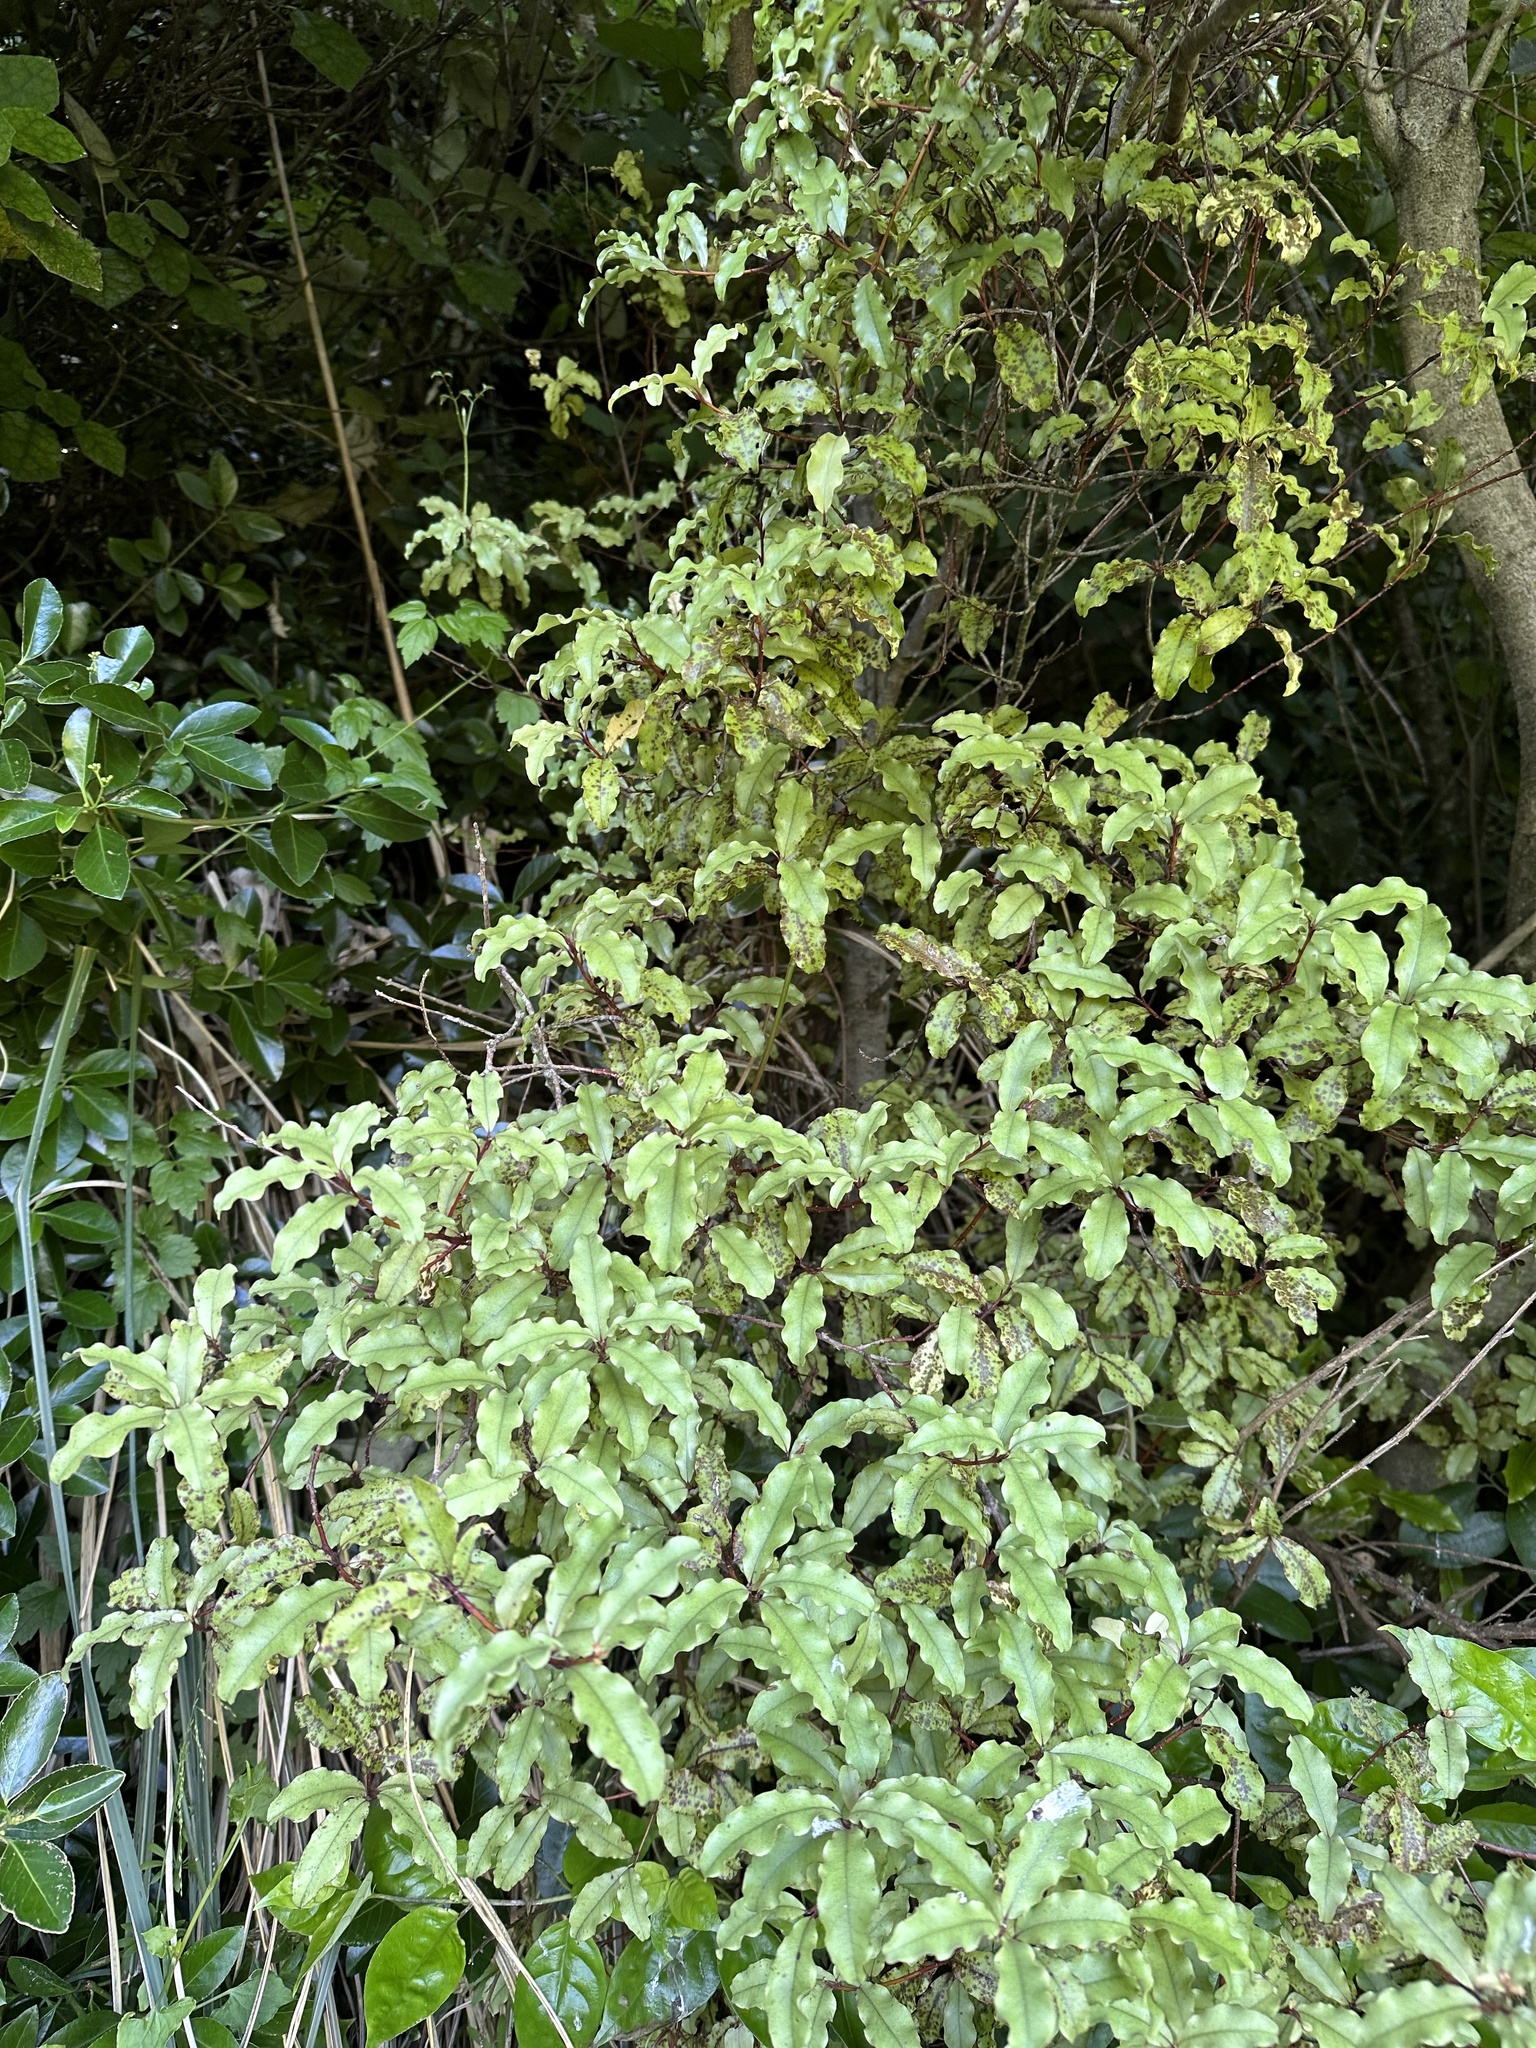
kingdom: Plantae
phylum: Tracheophyta
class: Magnoliopsida
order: Ericales
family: Primulaceae
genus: Myrsine
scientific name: Myrsine australis
